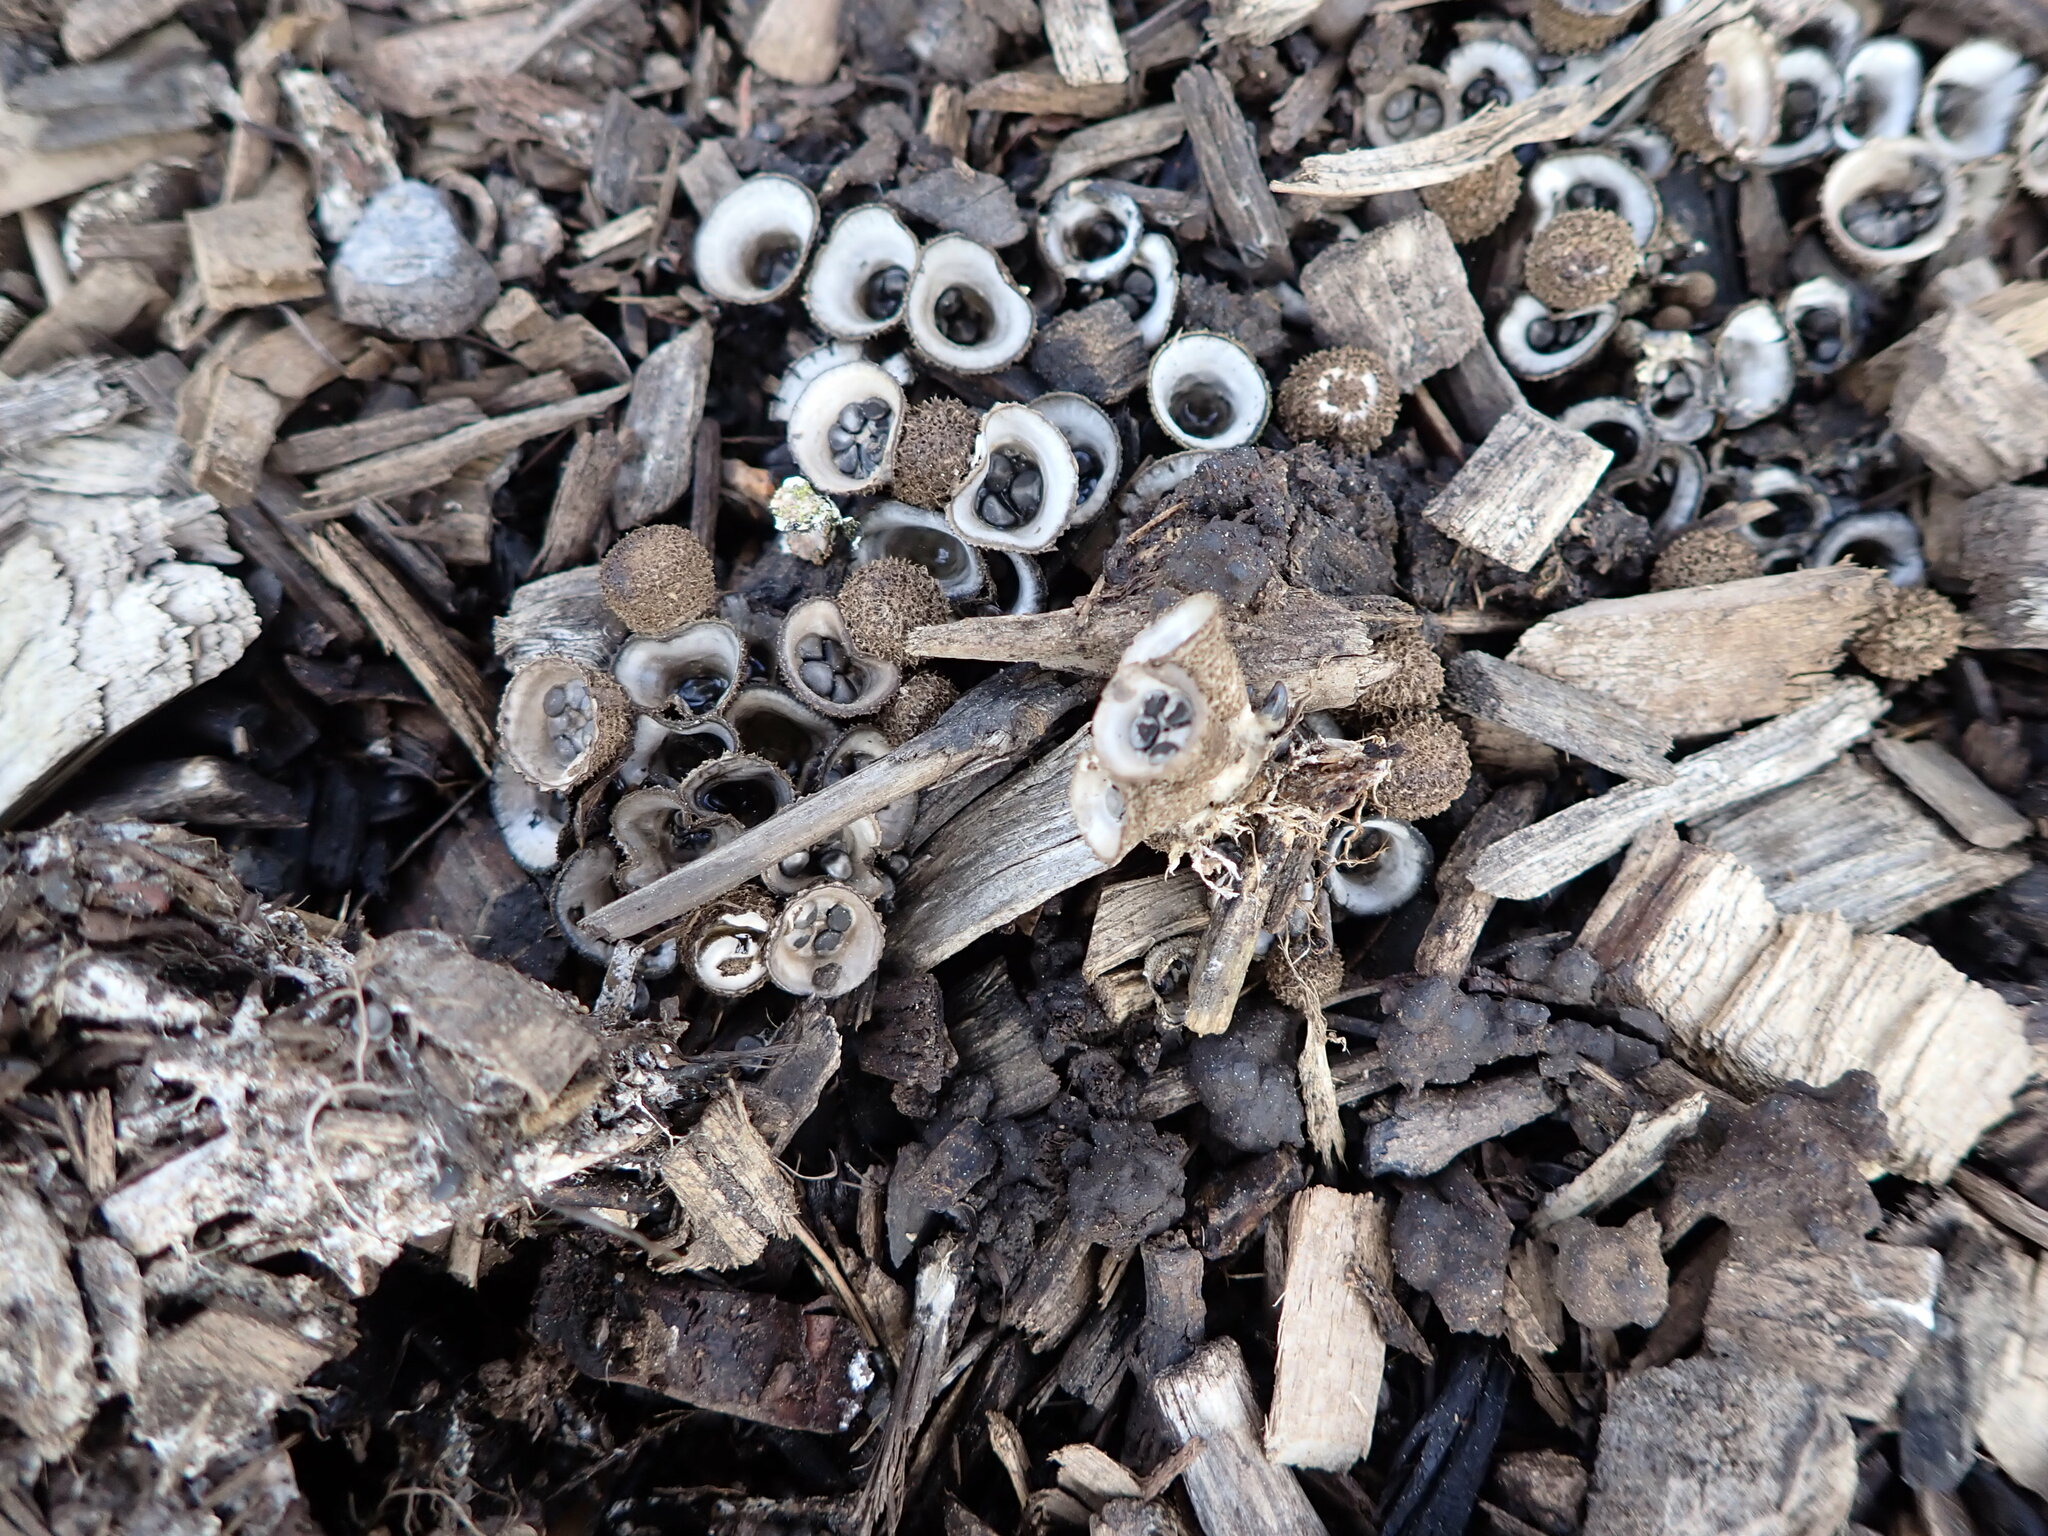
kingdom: Fungi
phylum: Basidiomycota
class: Agaricomycetes
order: Agaricales
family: Agaricaceae
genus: Cyathus
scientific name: Cyathus olla
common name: Field bird's nest
